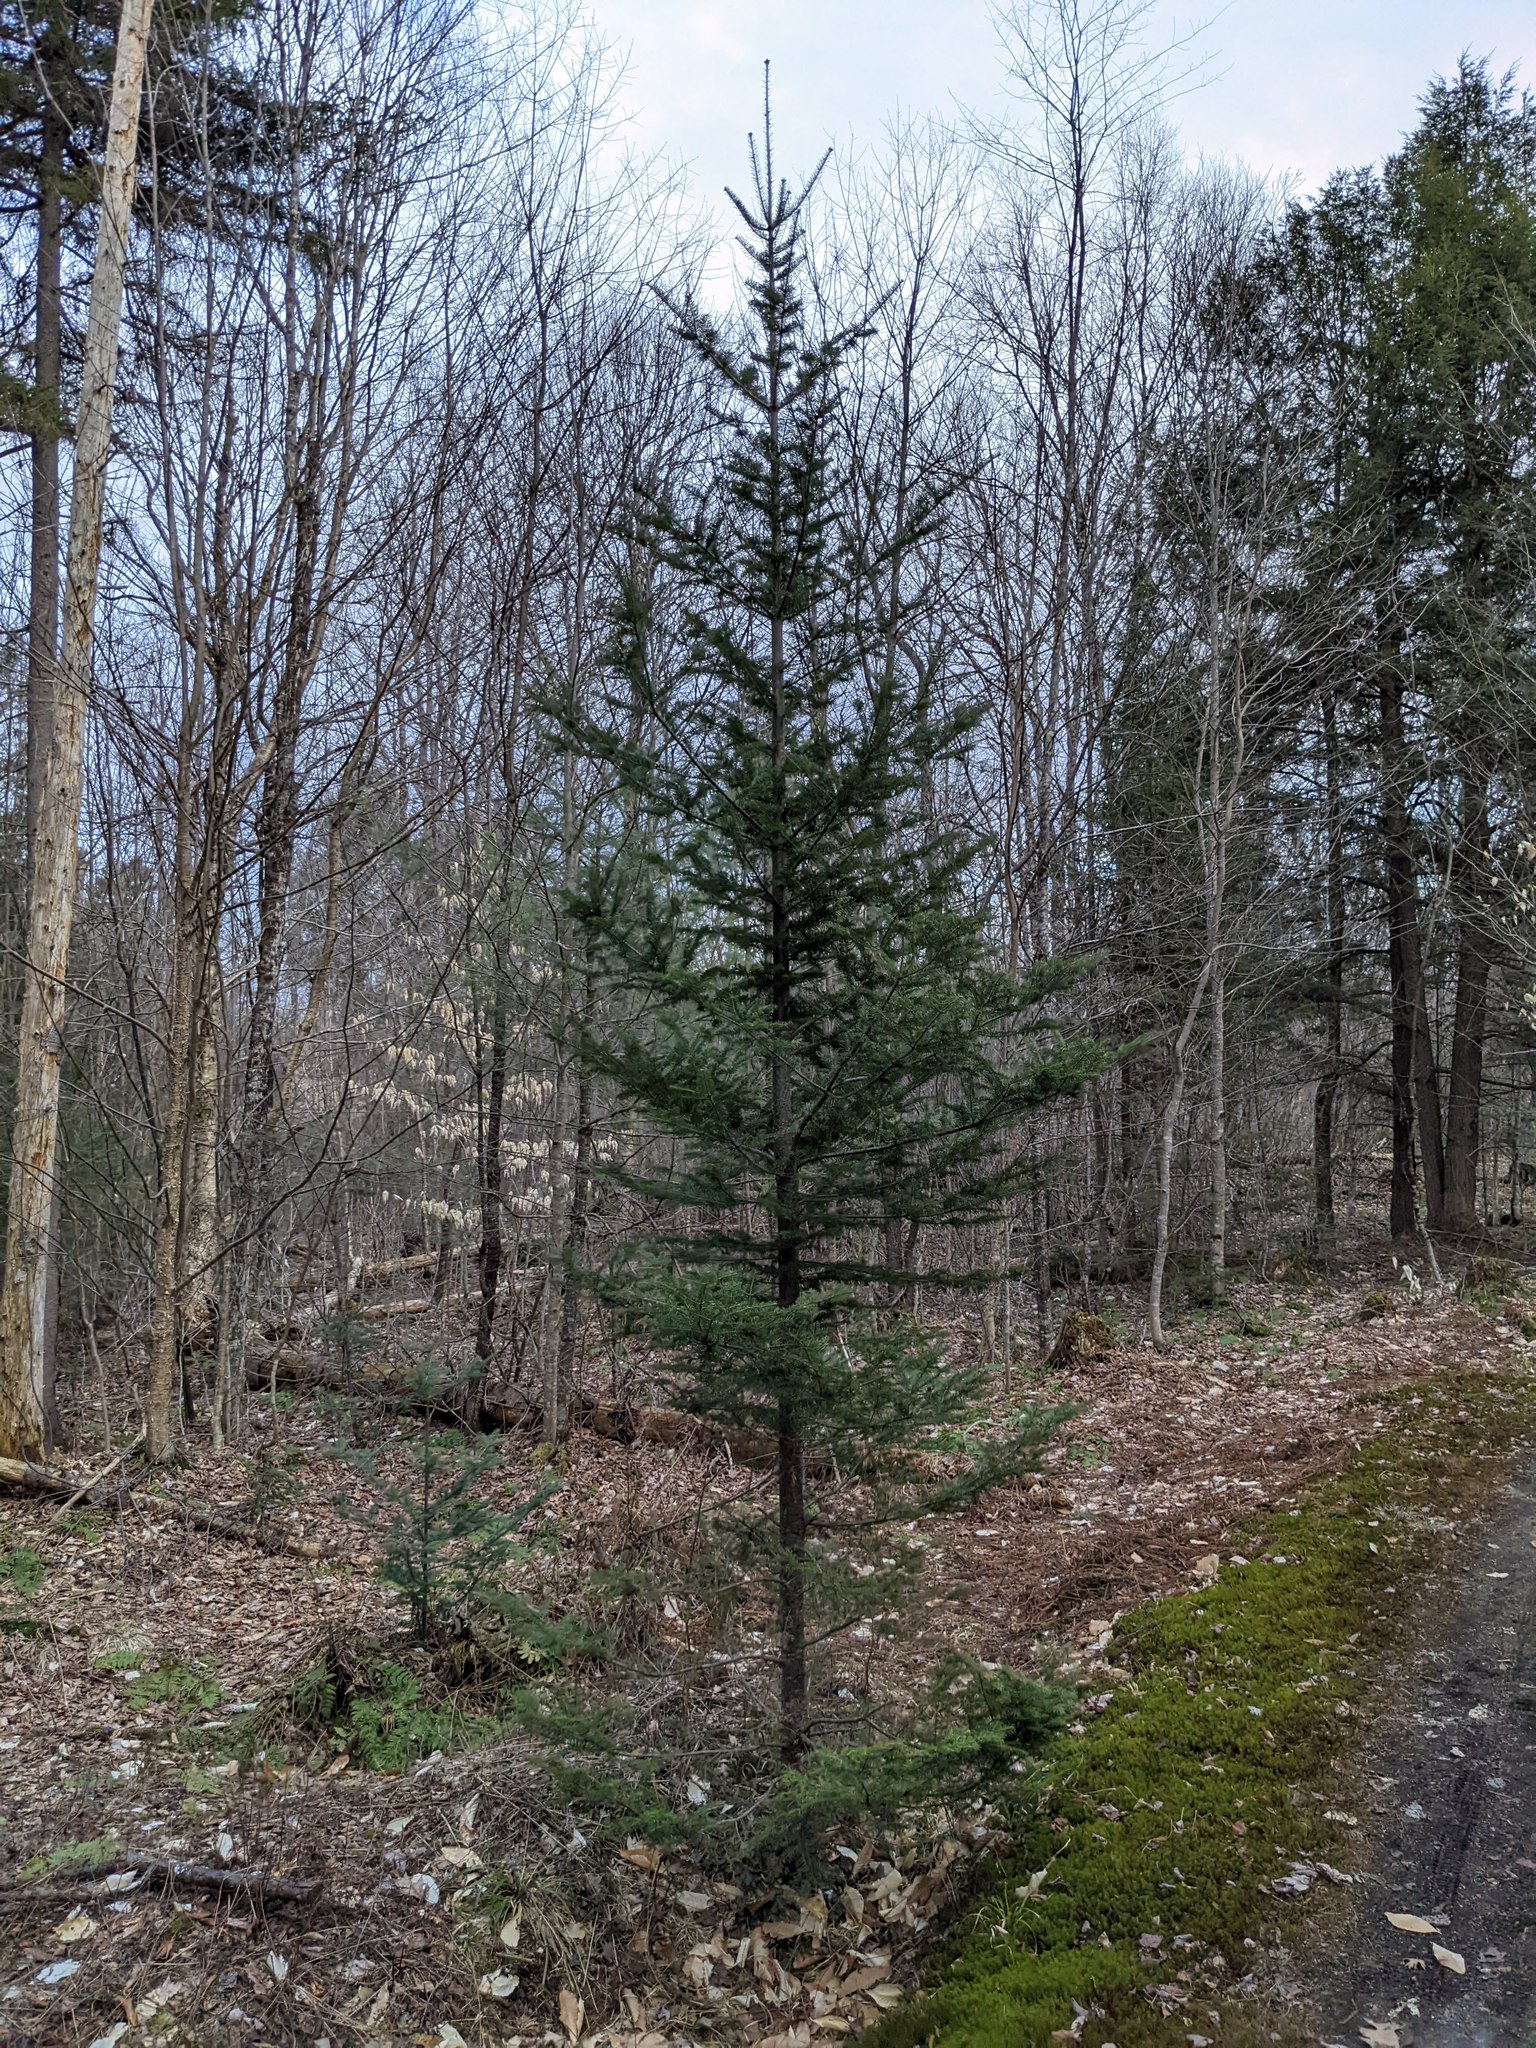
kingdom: Plantae
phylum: Tracheophyta
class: Pinopsida
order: Pinales
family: Pinaceae
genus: Abies
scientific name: Abies balsamea
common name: Balsam fir
